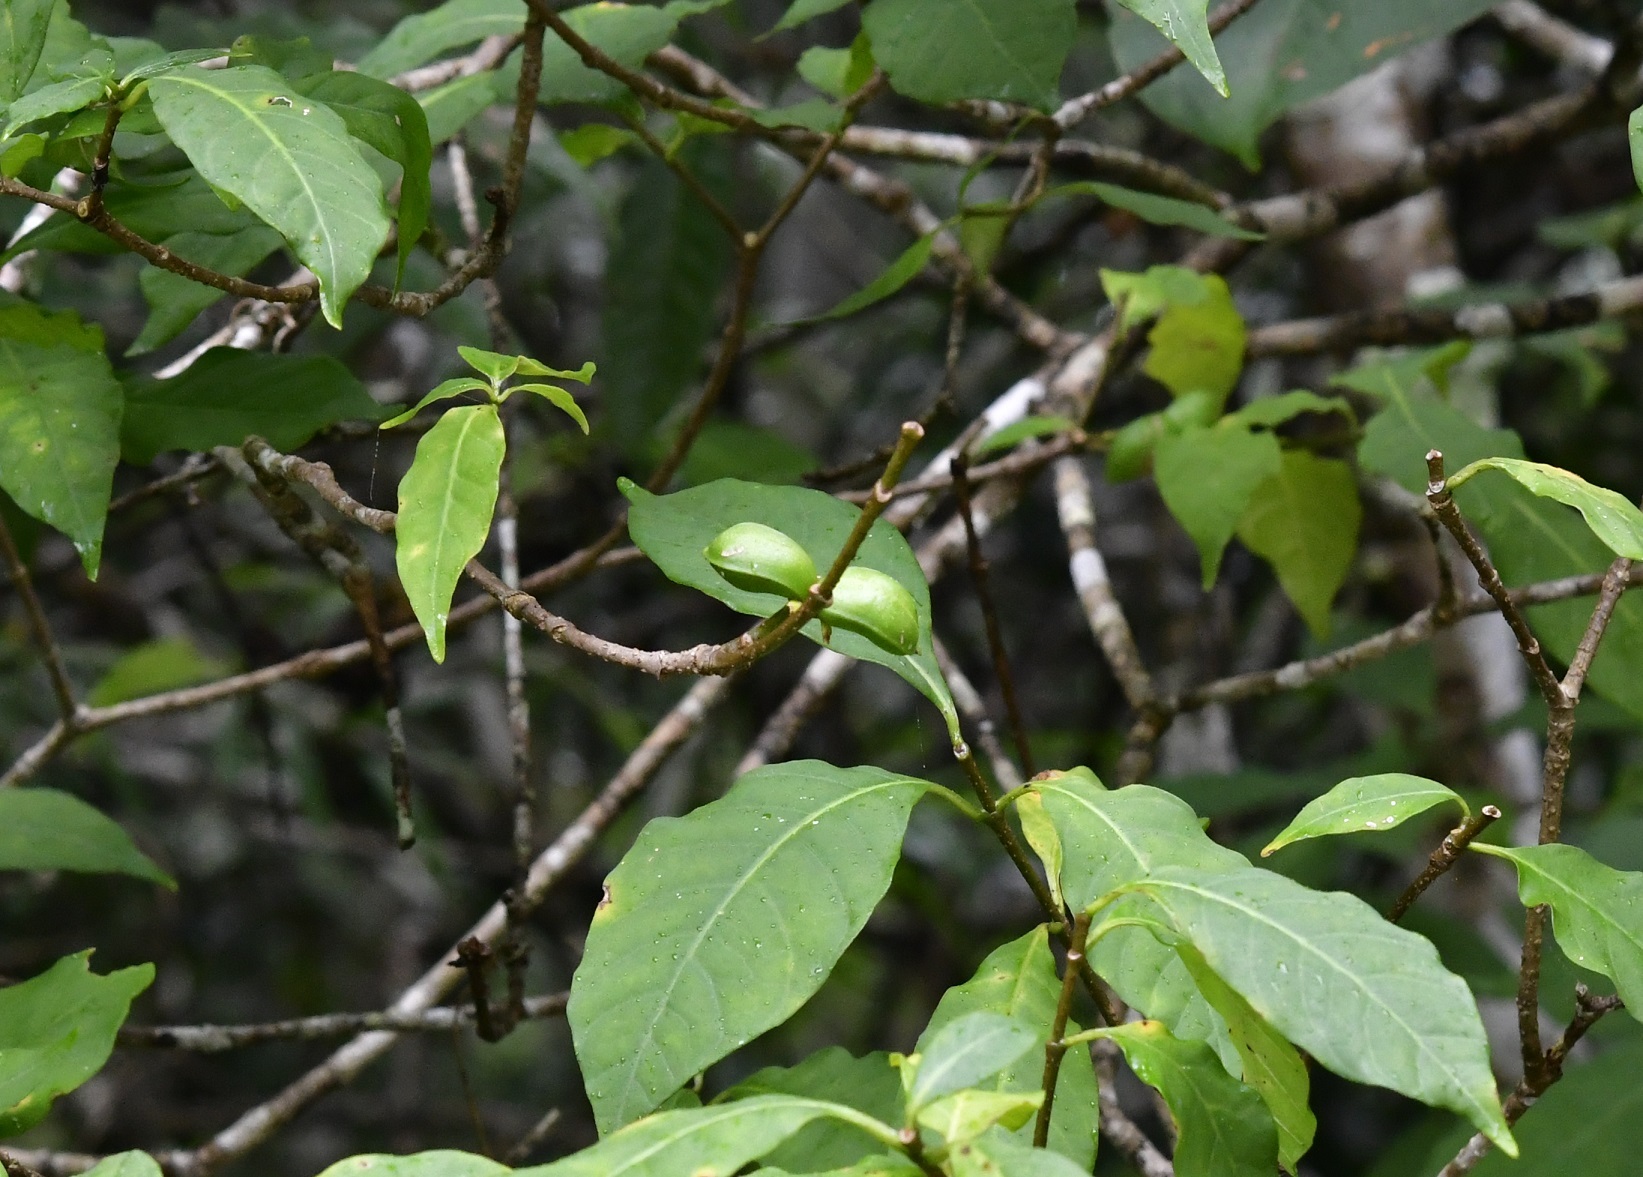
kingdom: Plantae
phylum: Tracheophyta
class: Magnoliopsida
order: Gentianales
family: Apocynaceae
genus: Tabernaemontana
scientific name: Tabernaemontana hannae
